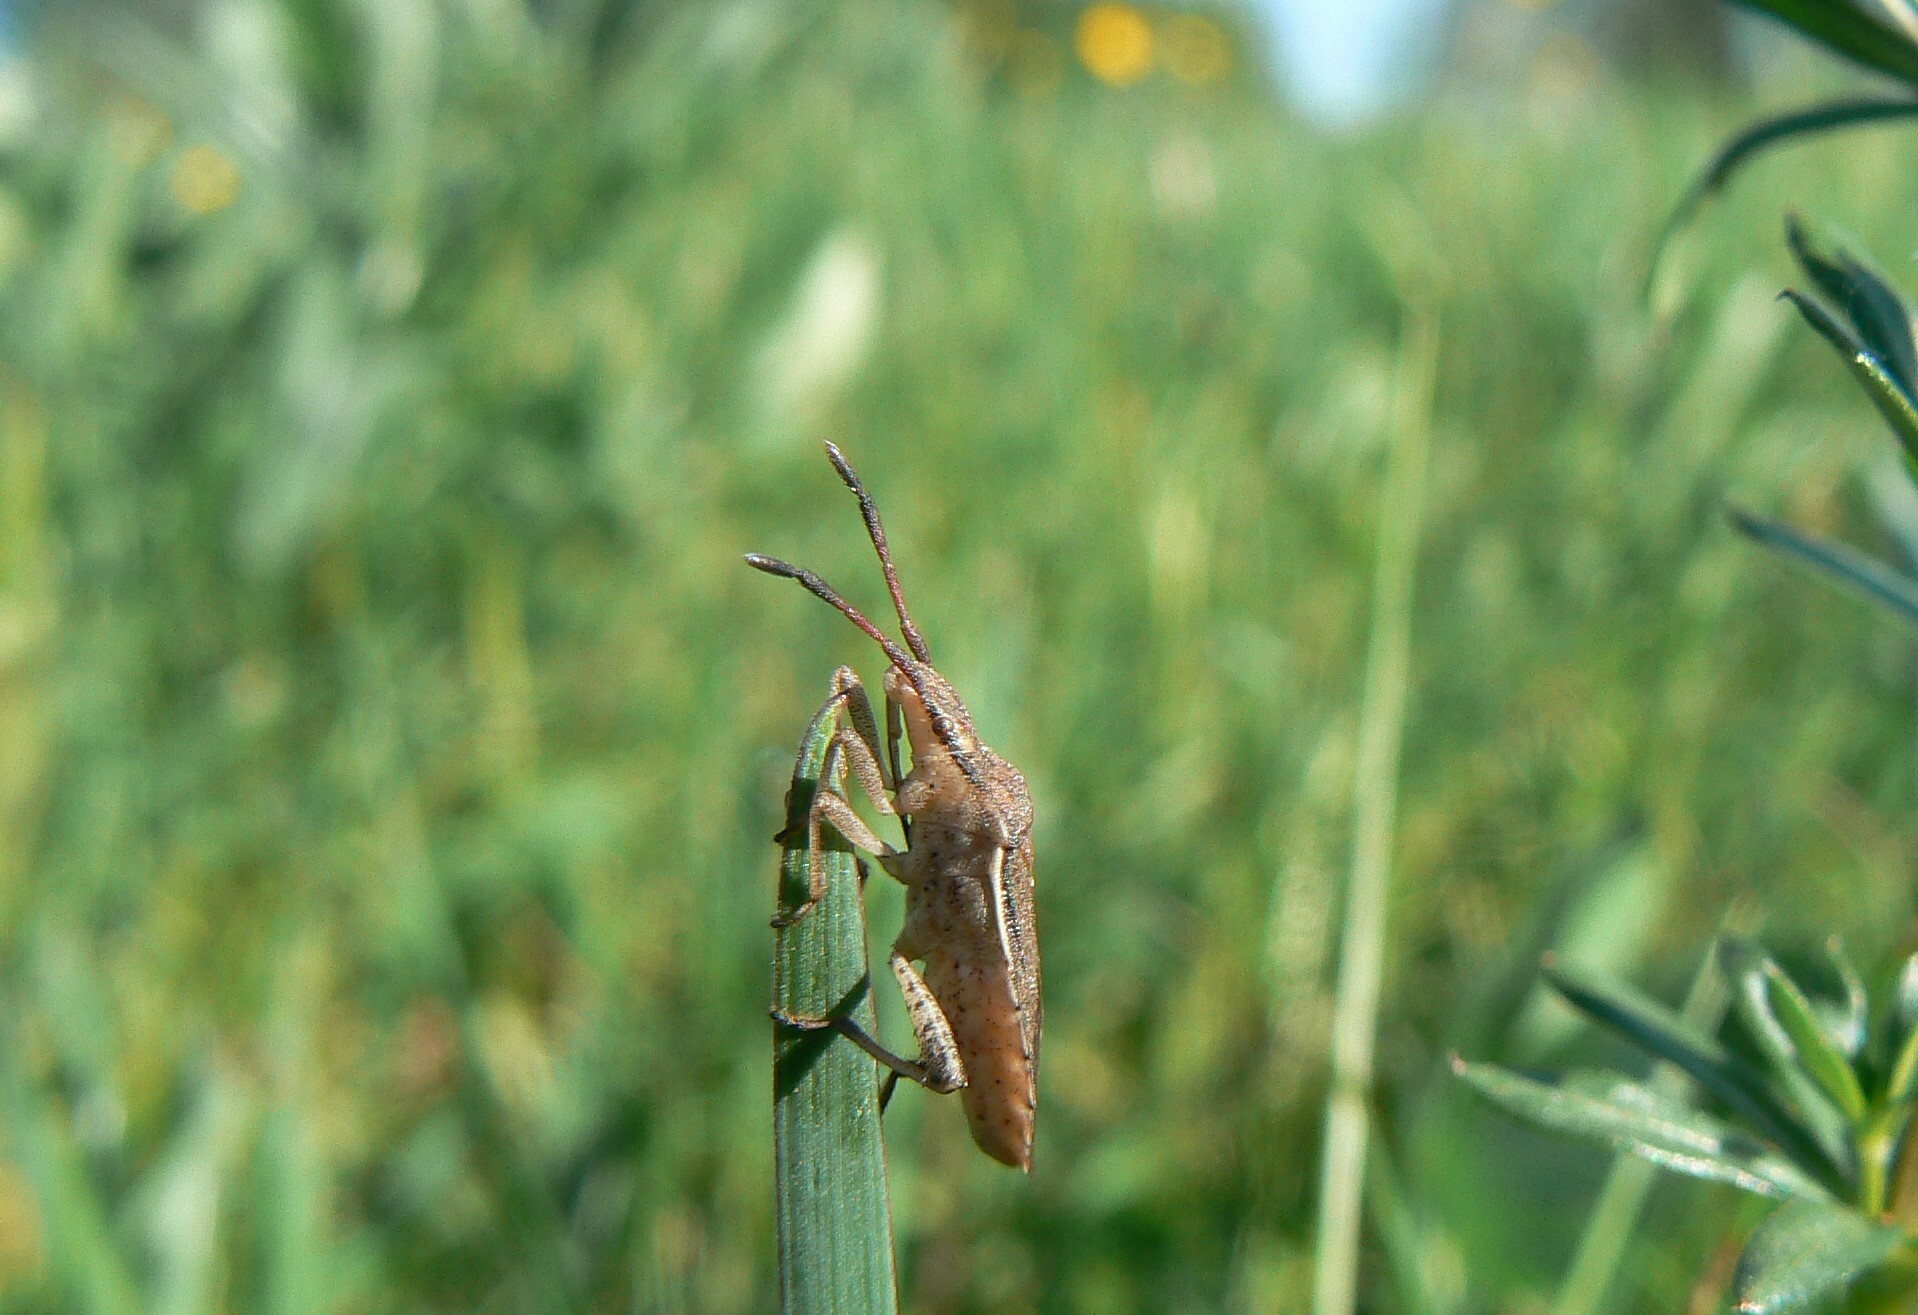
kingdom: Animalia
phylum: Arthropoda
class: Insecta
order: Hemiptera
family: Coreidae
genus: Ceraleptus
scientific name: Ceraleptus lividus
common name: Slender-horned leatherbug
